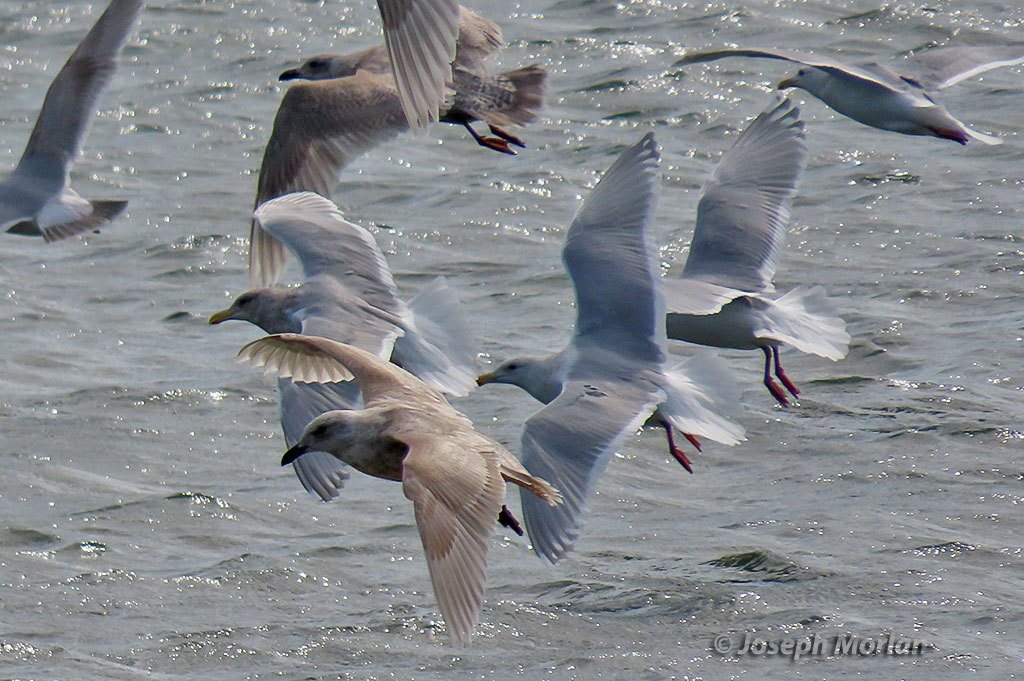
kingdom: Animalia
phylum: Chordata
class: Aves
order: Charadriiformes
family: Laridae
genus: Larus
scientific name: Larus glaucescens
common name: Glaucous-winged gull
